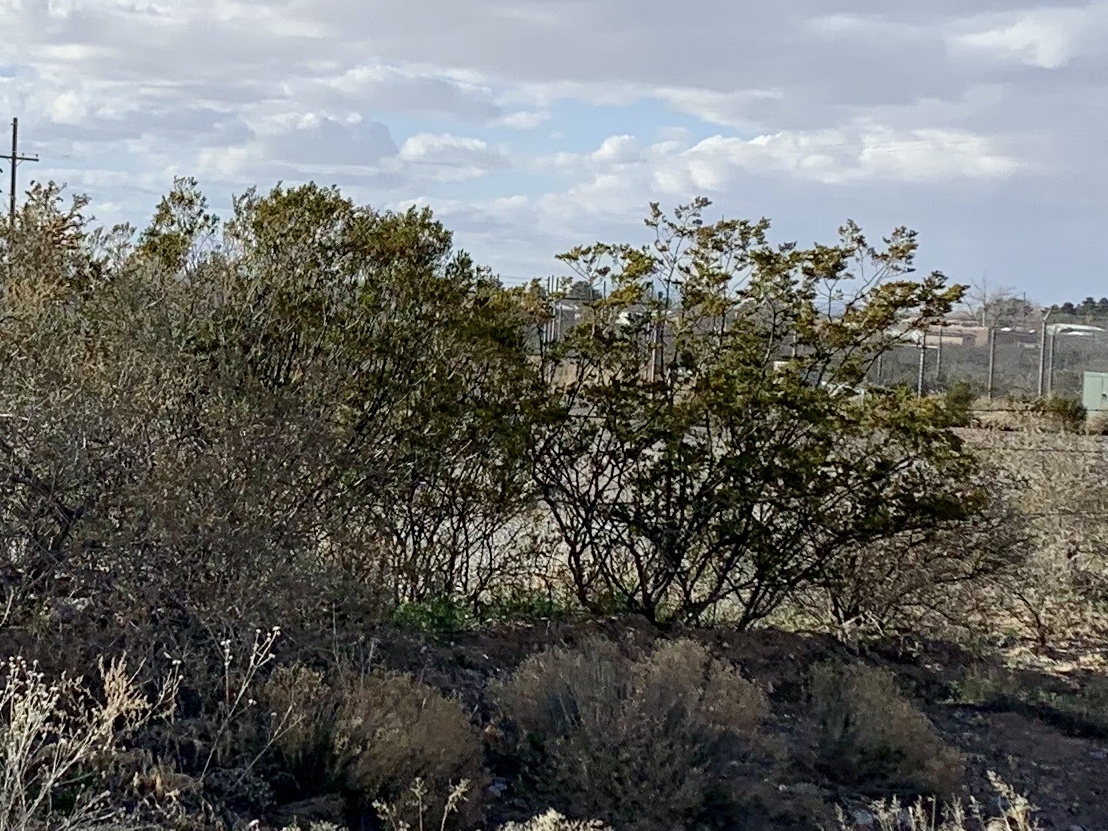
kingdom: Plantae
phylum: Tracheophyta
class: Magnoliopsida
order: Zygophyllales
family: Zygophyllaceae
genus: Larrea
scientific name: Larrea tridentata
